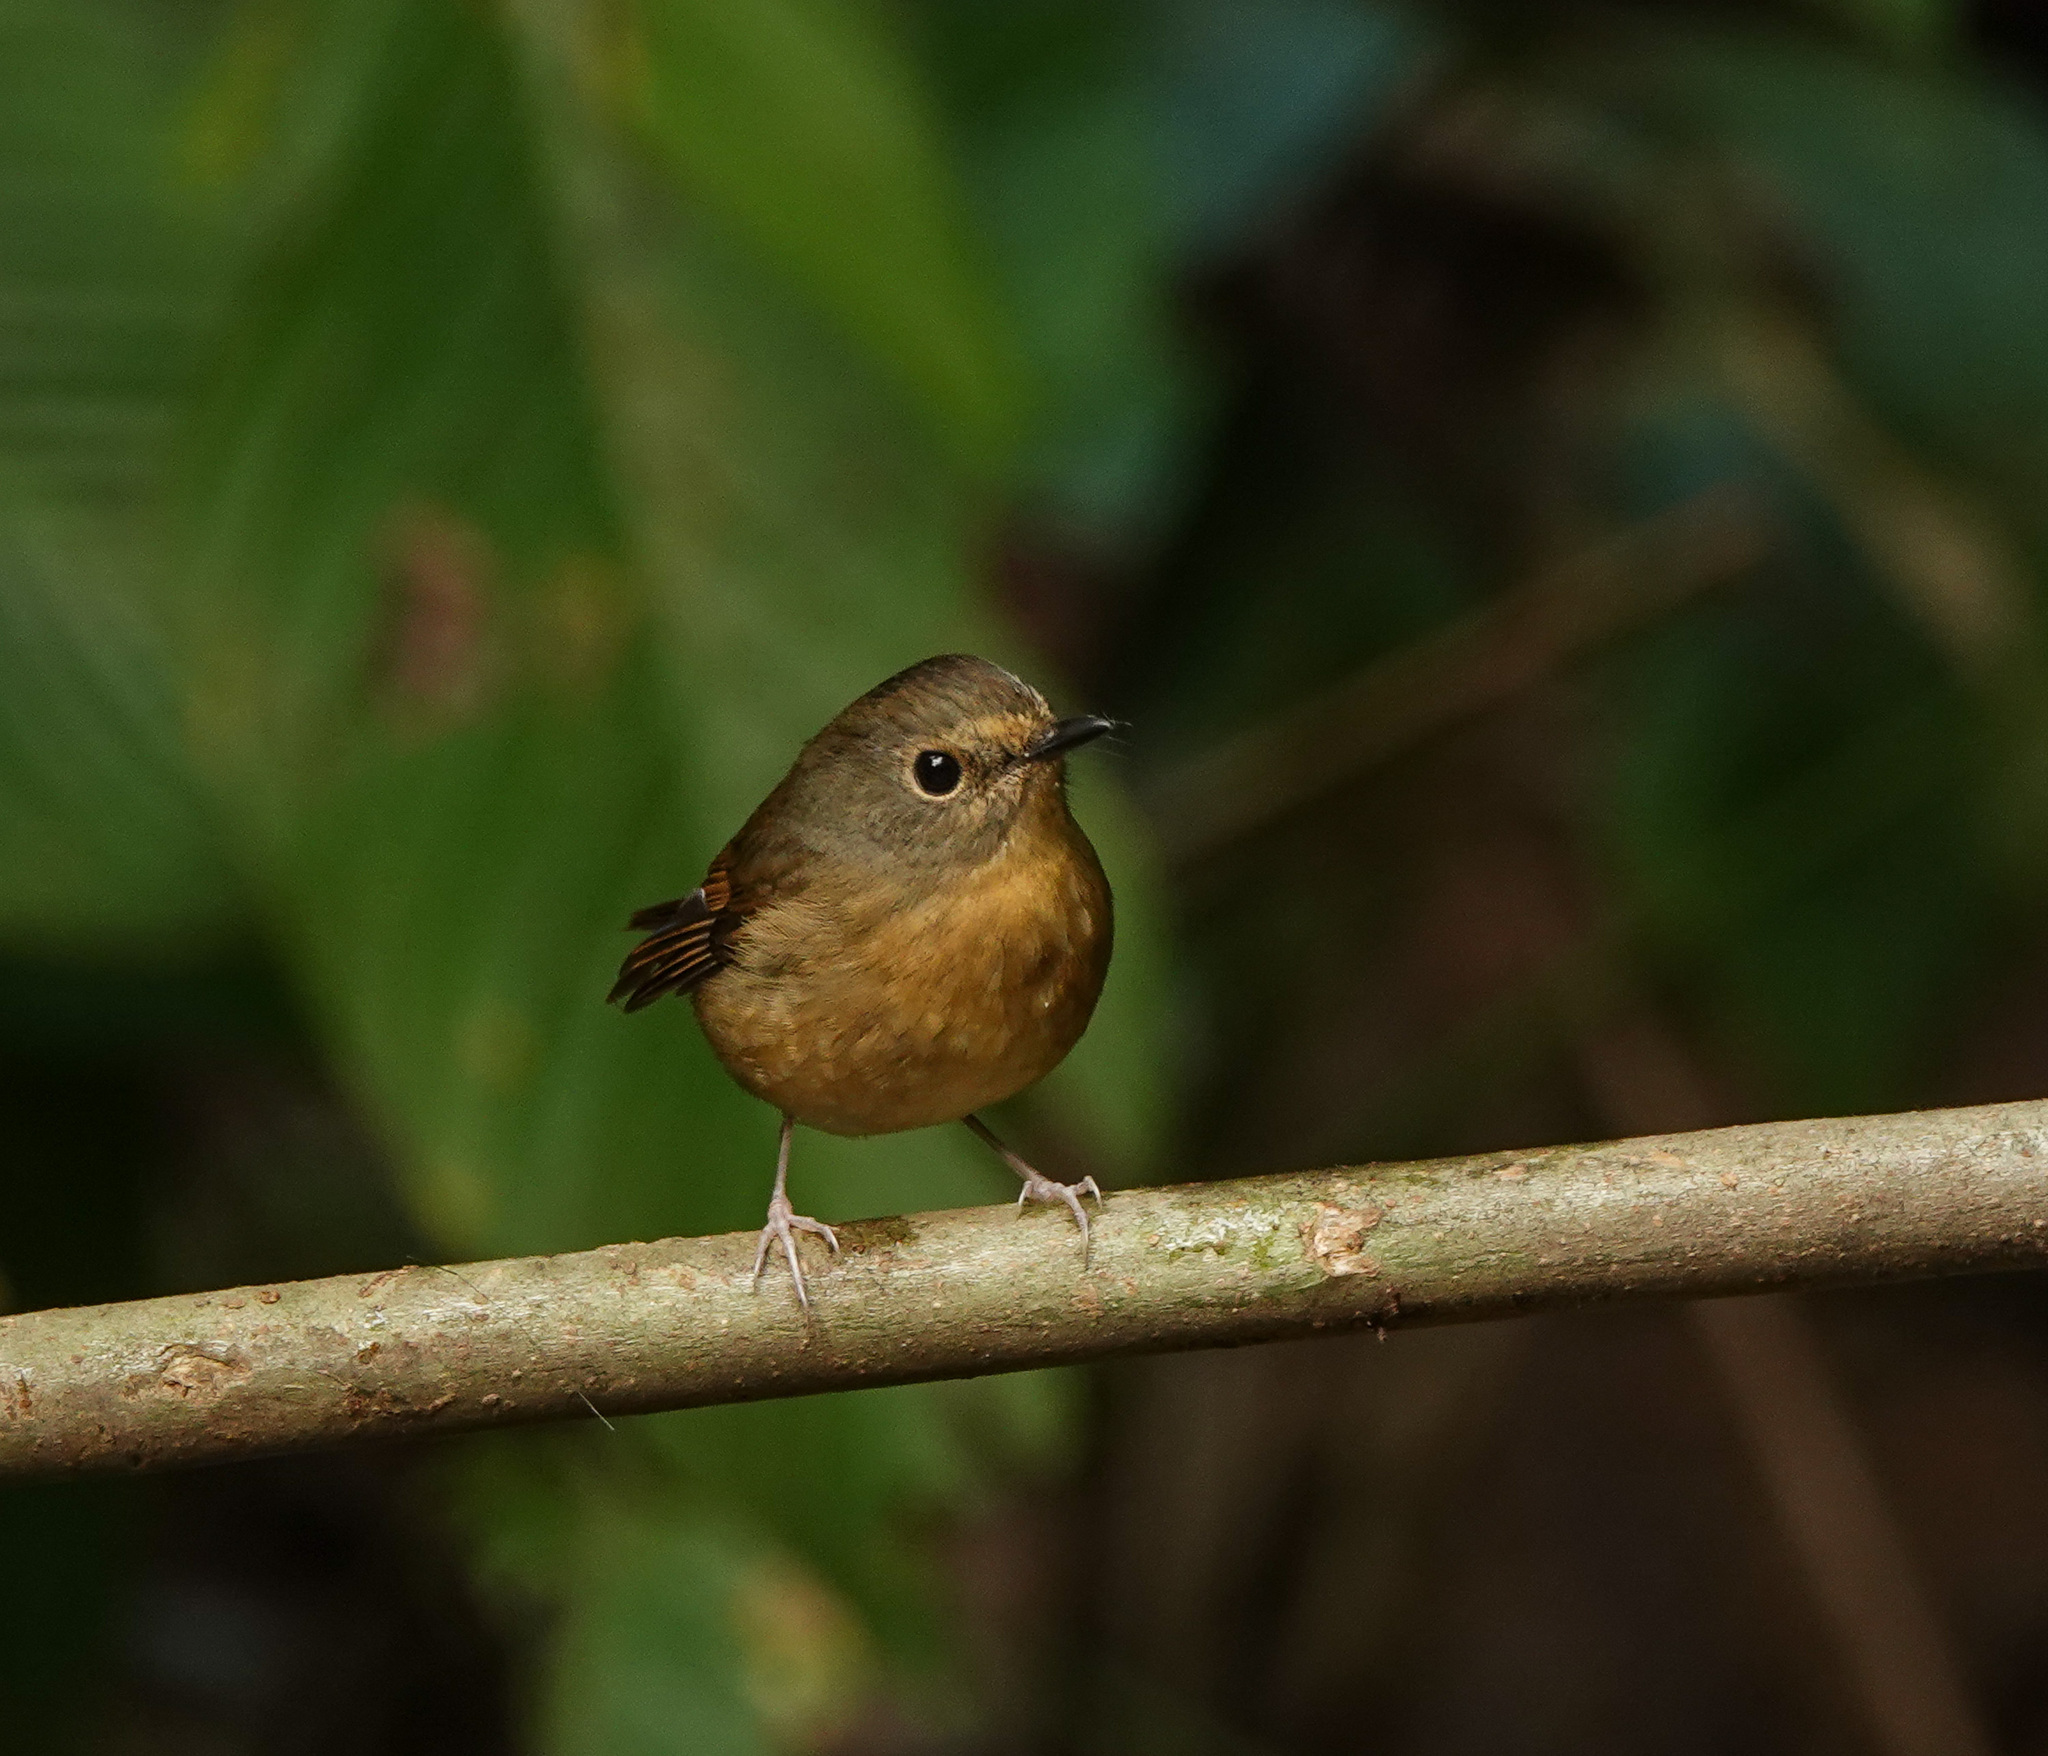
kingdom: Animalia
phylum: Chordata
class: Aves
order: Passeriformes
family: Muscicapidae
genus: Ficedula
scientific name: Ficedula hyperythra
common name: Snowy-browed flycatcher
